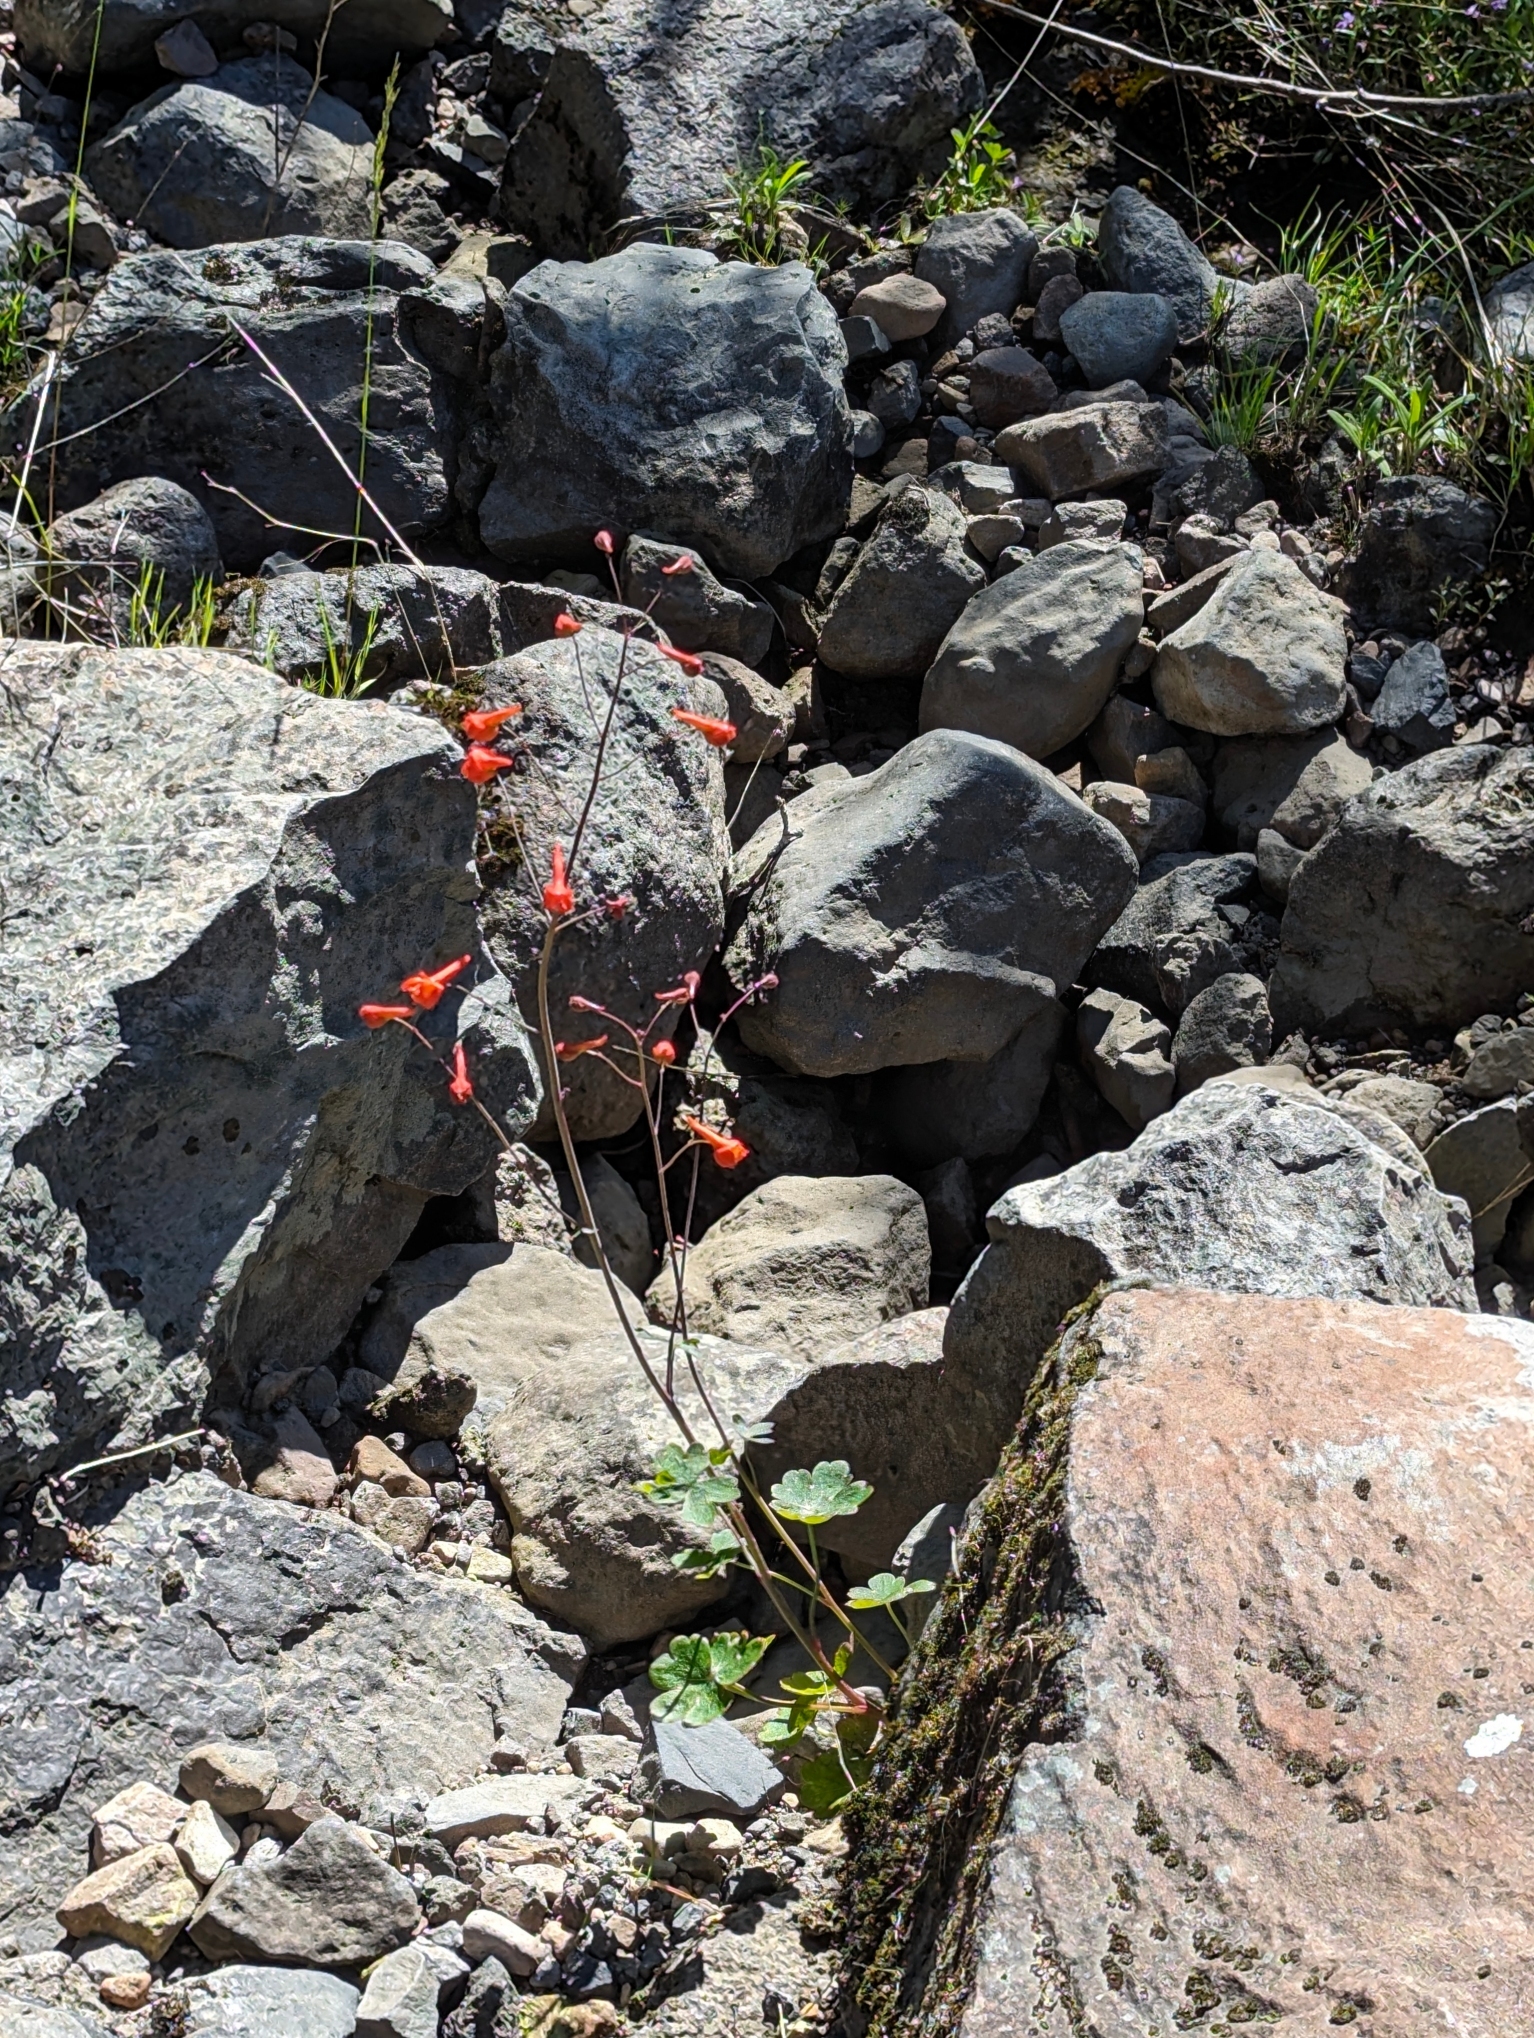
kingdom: Plantae
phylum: Tracheophyta
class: Magnoliopsida
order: Ranunculales
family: Ranunculaceae
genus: Delphinium
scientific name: Delphinium nudicaule
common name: Red larkspur
